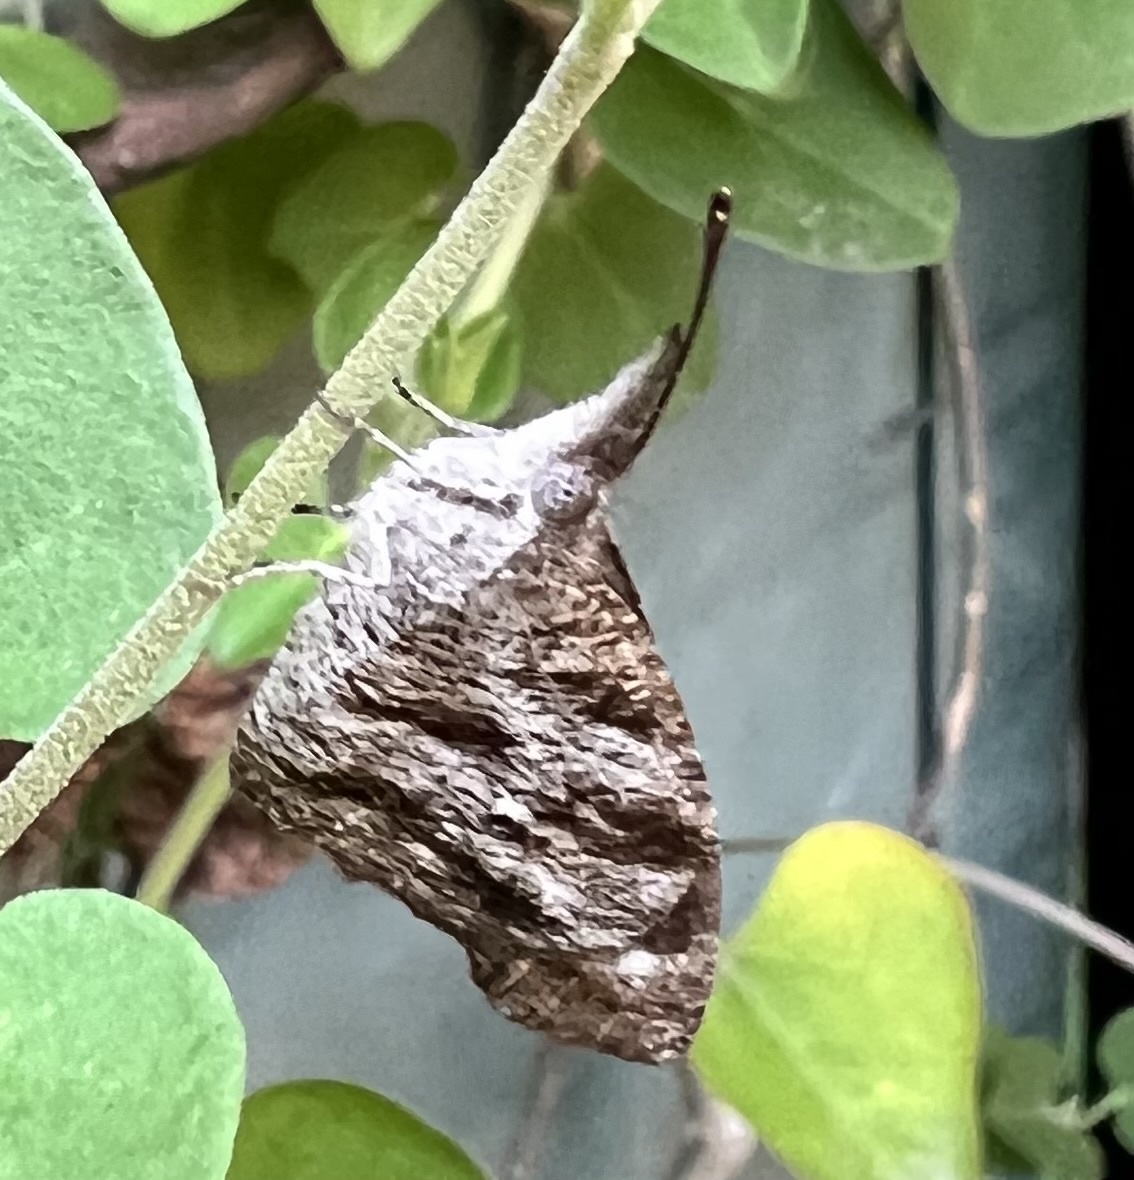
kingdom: Animalia
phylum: Arthropoda
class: Insecta
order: Lepidoptera
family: Nymphalidae
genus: Libytheana
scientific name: Libytheana carinenta
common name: American snout
